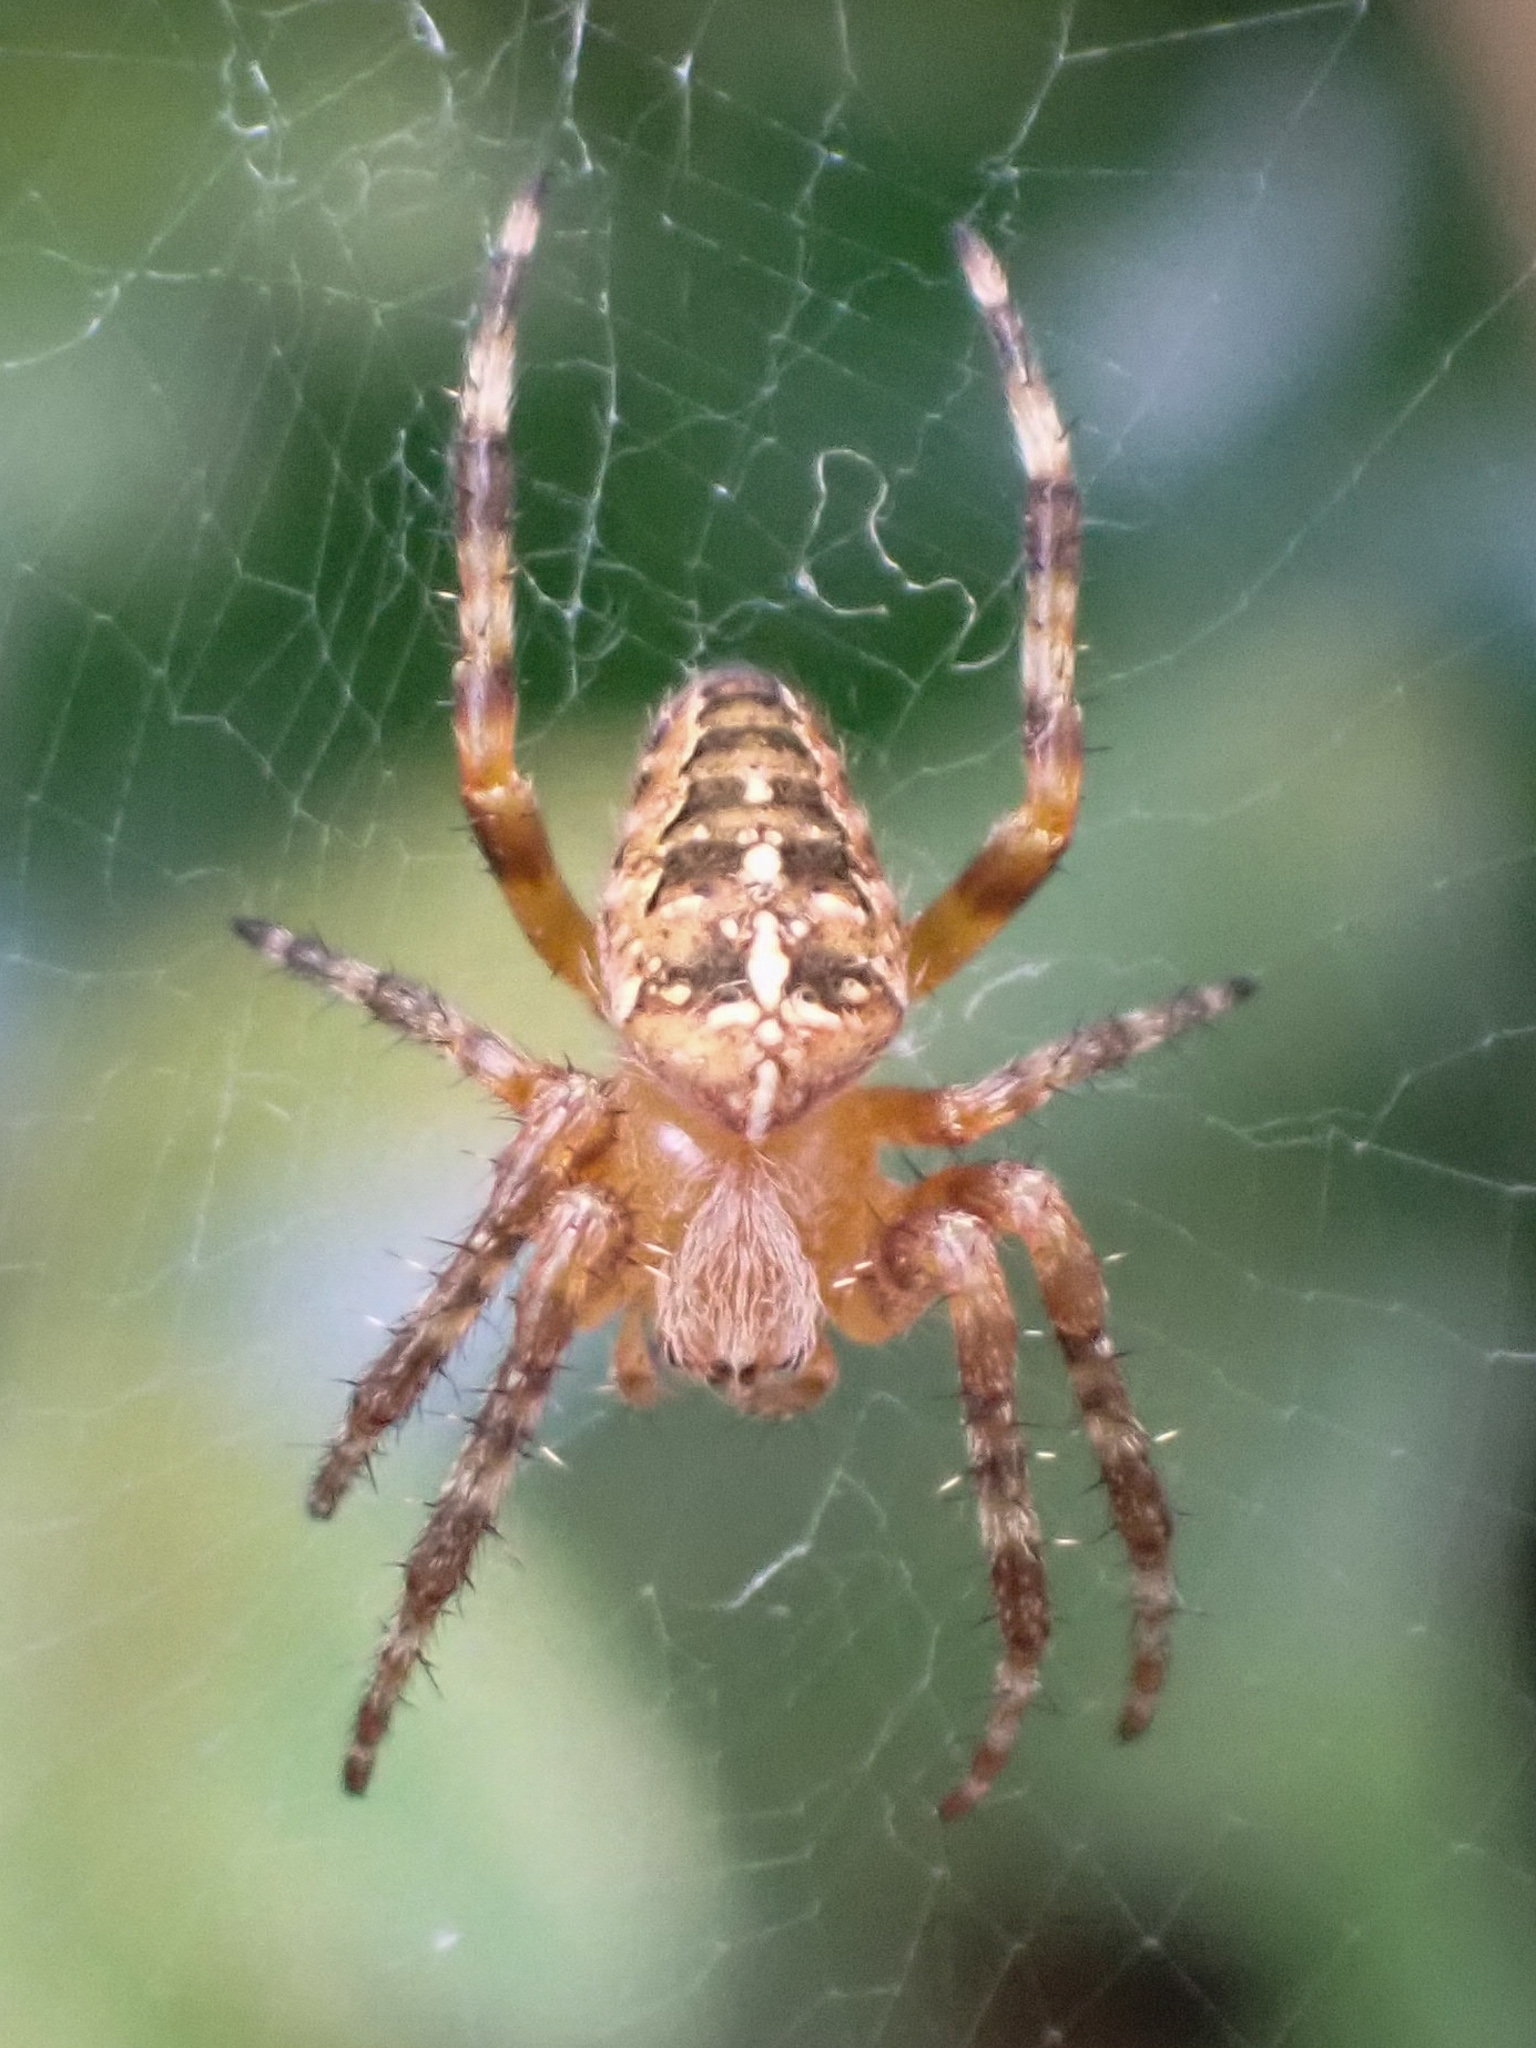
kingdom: Animalia
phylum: Arthropoda
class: Arachnida
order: Araneae
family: Araneidae
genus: Araneus
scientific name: Araneus diadematus
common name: Cross orbweaver
